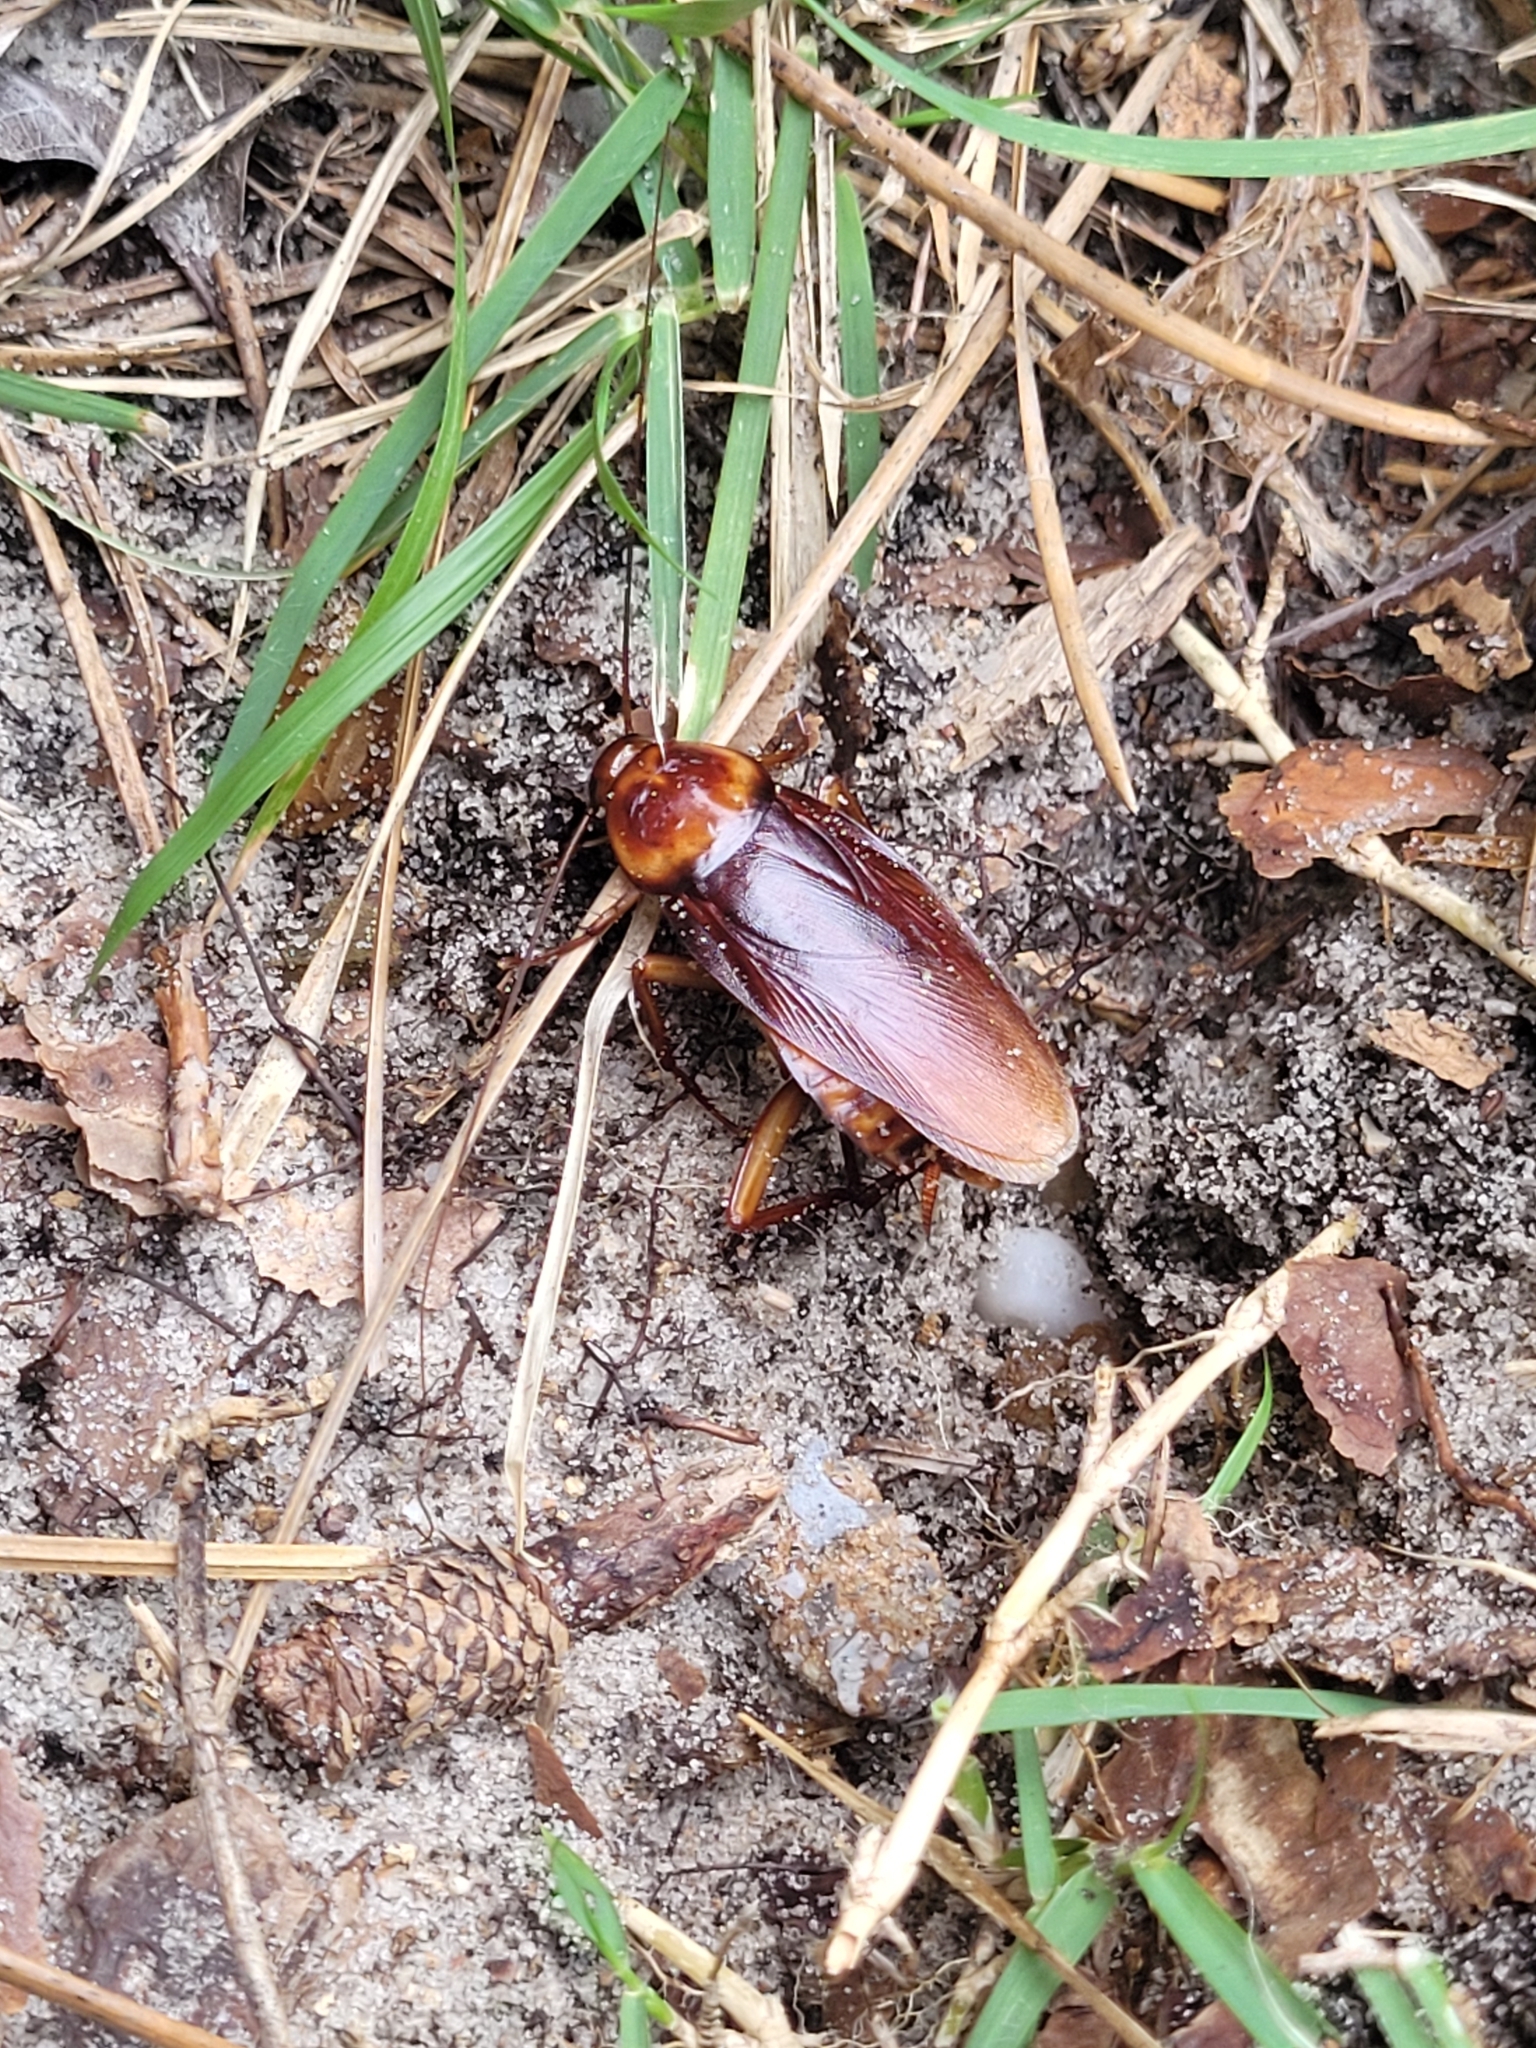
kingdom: Animalia
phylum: Arthropoda
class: Insecta
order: Blattodea
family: Blattidae
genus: Periplaneta
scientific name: Periplaneta americana
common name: American cockroach
